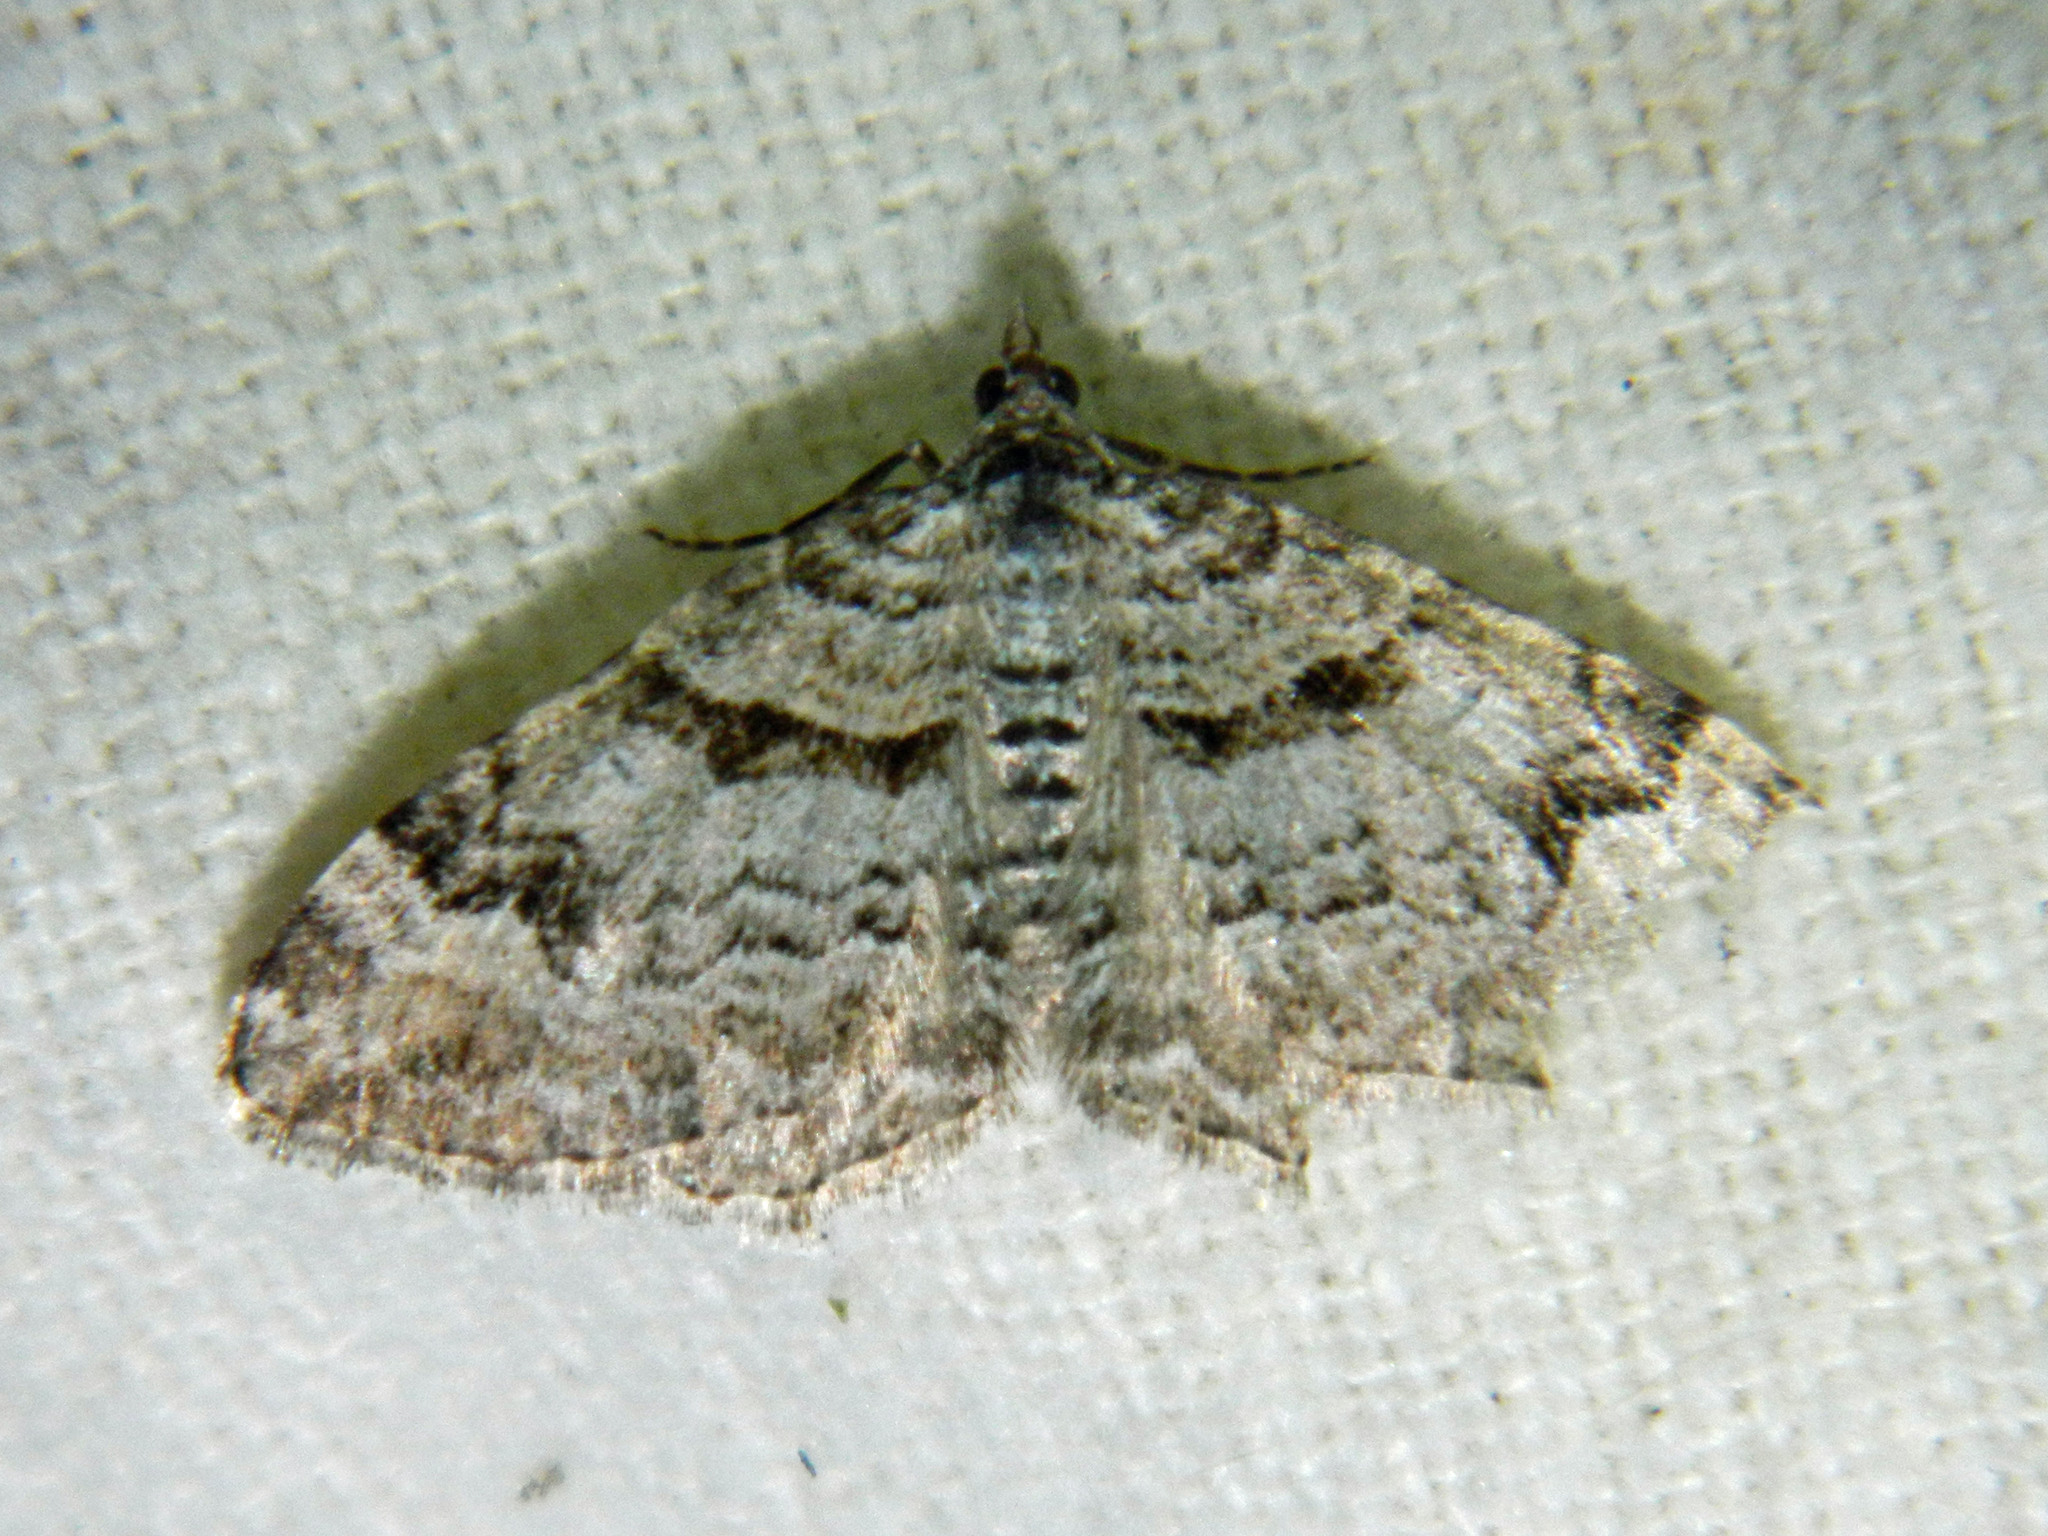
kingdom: Animalia
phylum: Arthropoda
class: Insecta
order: Lepidoptera
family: Geometridae
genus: Xanthorhoe
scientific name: Xanthorhoe abrasaria
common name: Northern carpet
